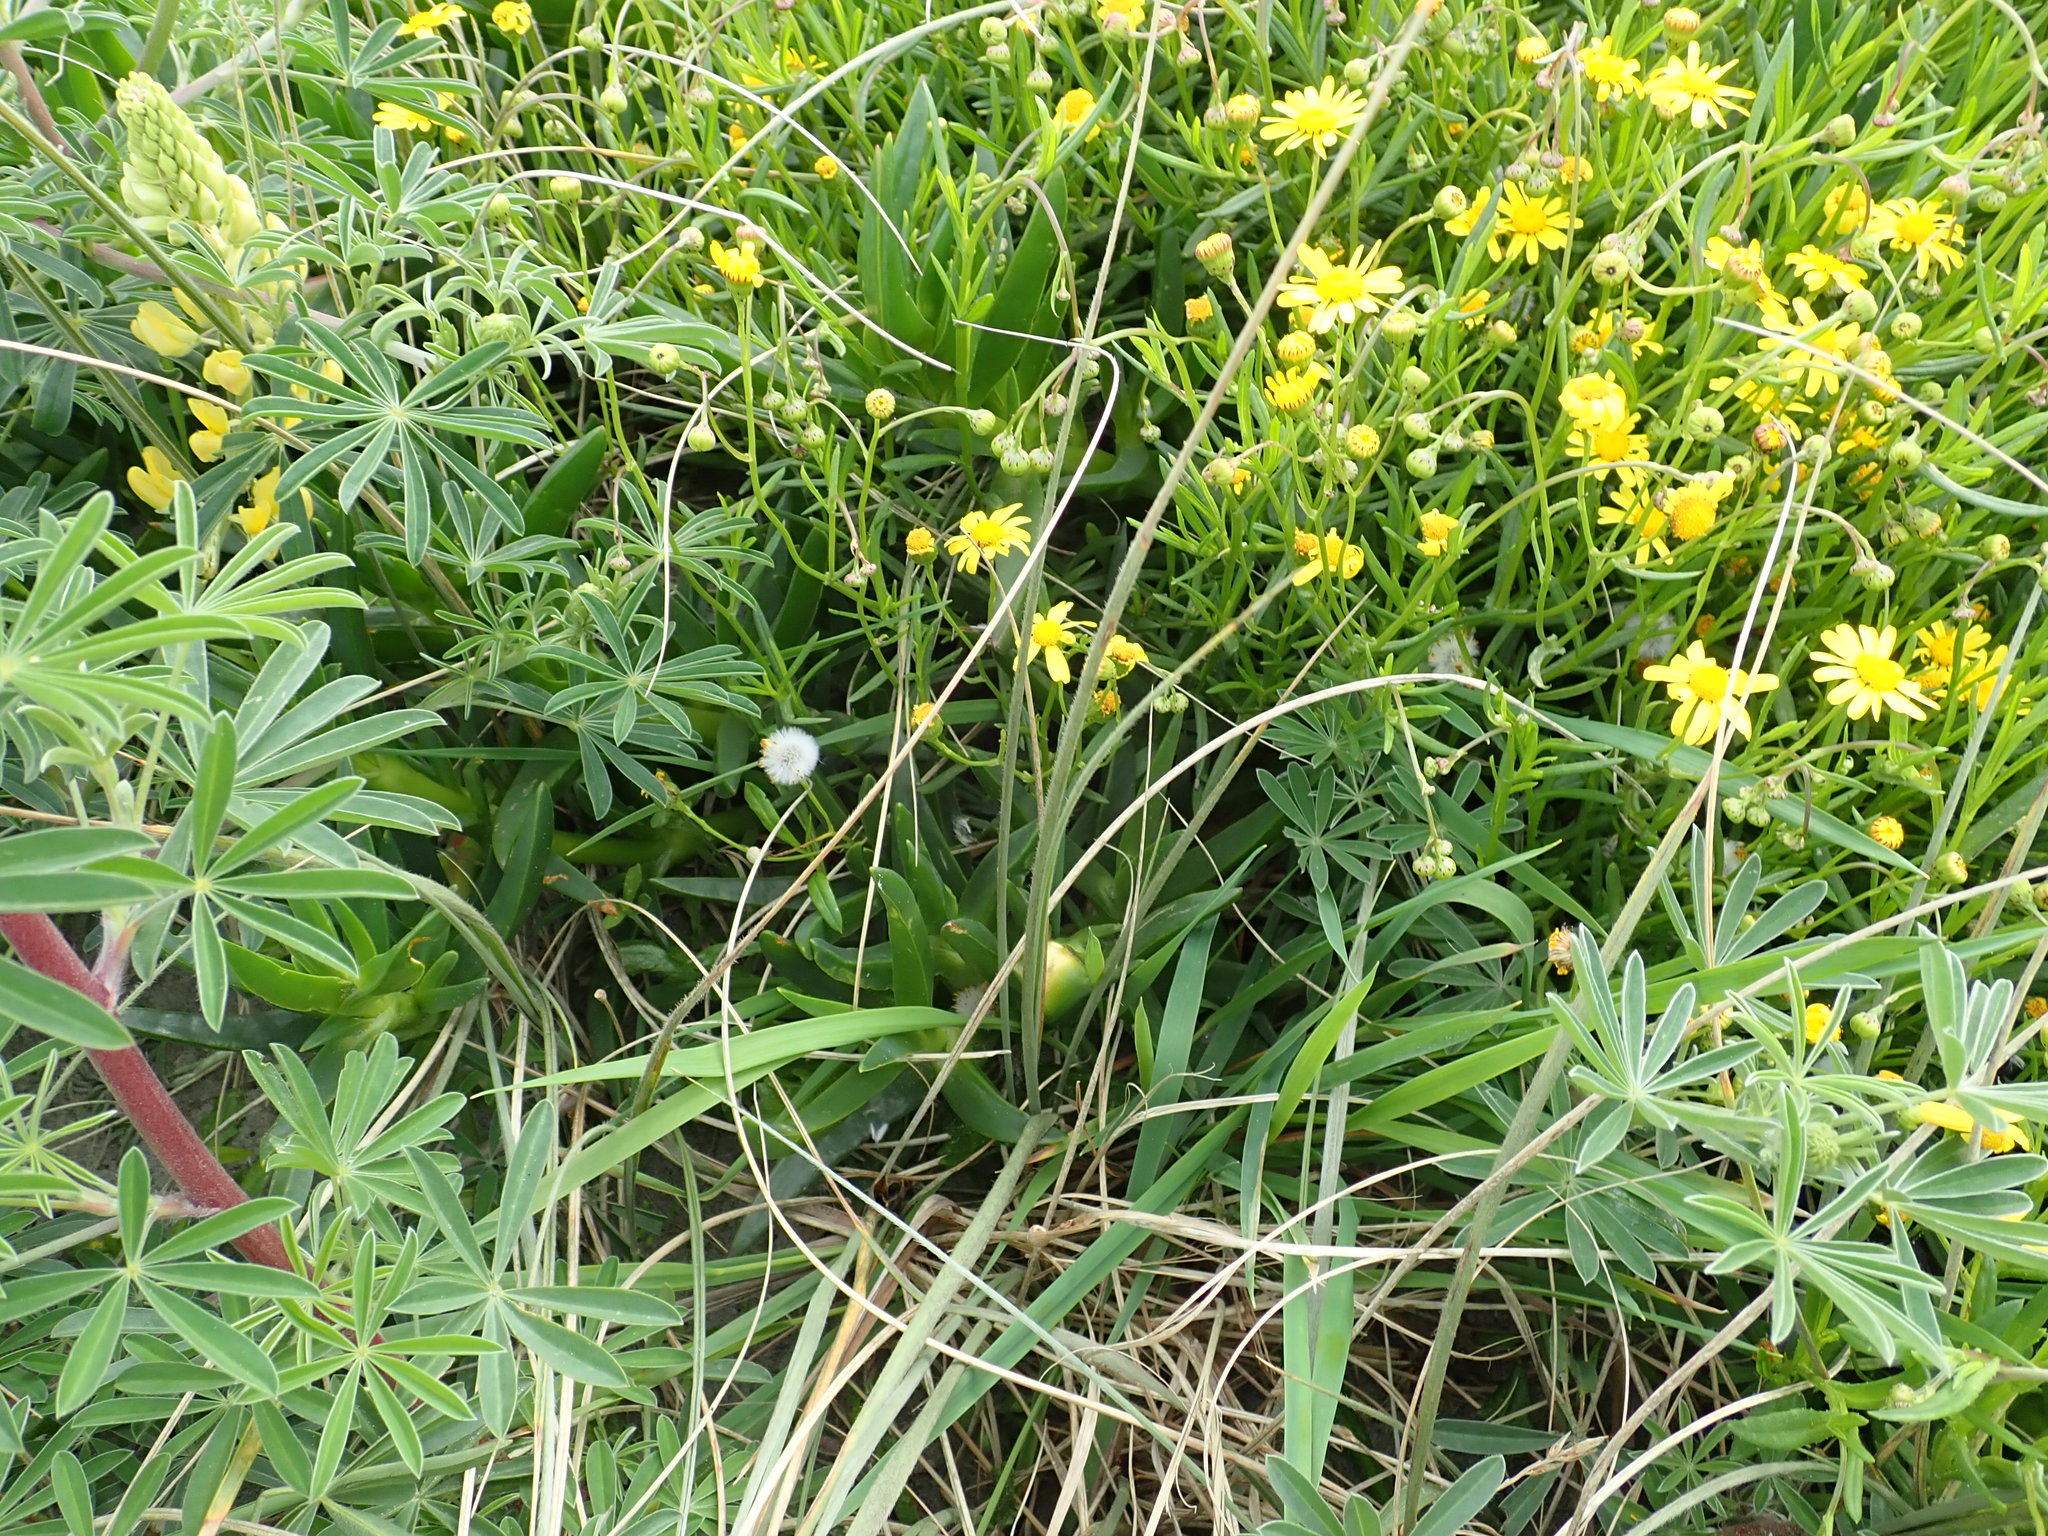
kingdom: Plantae
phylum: Tracheophyta
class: Magnoliopsida
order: Asterales
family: Asteraceae
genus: Senecio
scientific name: Senecio skirrhodon
